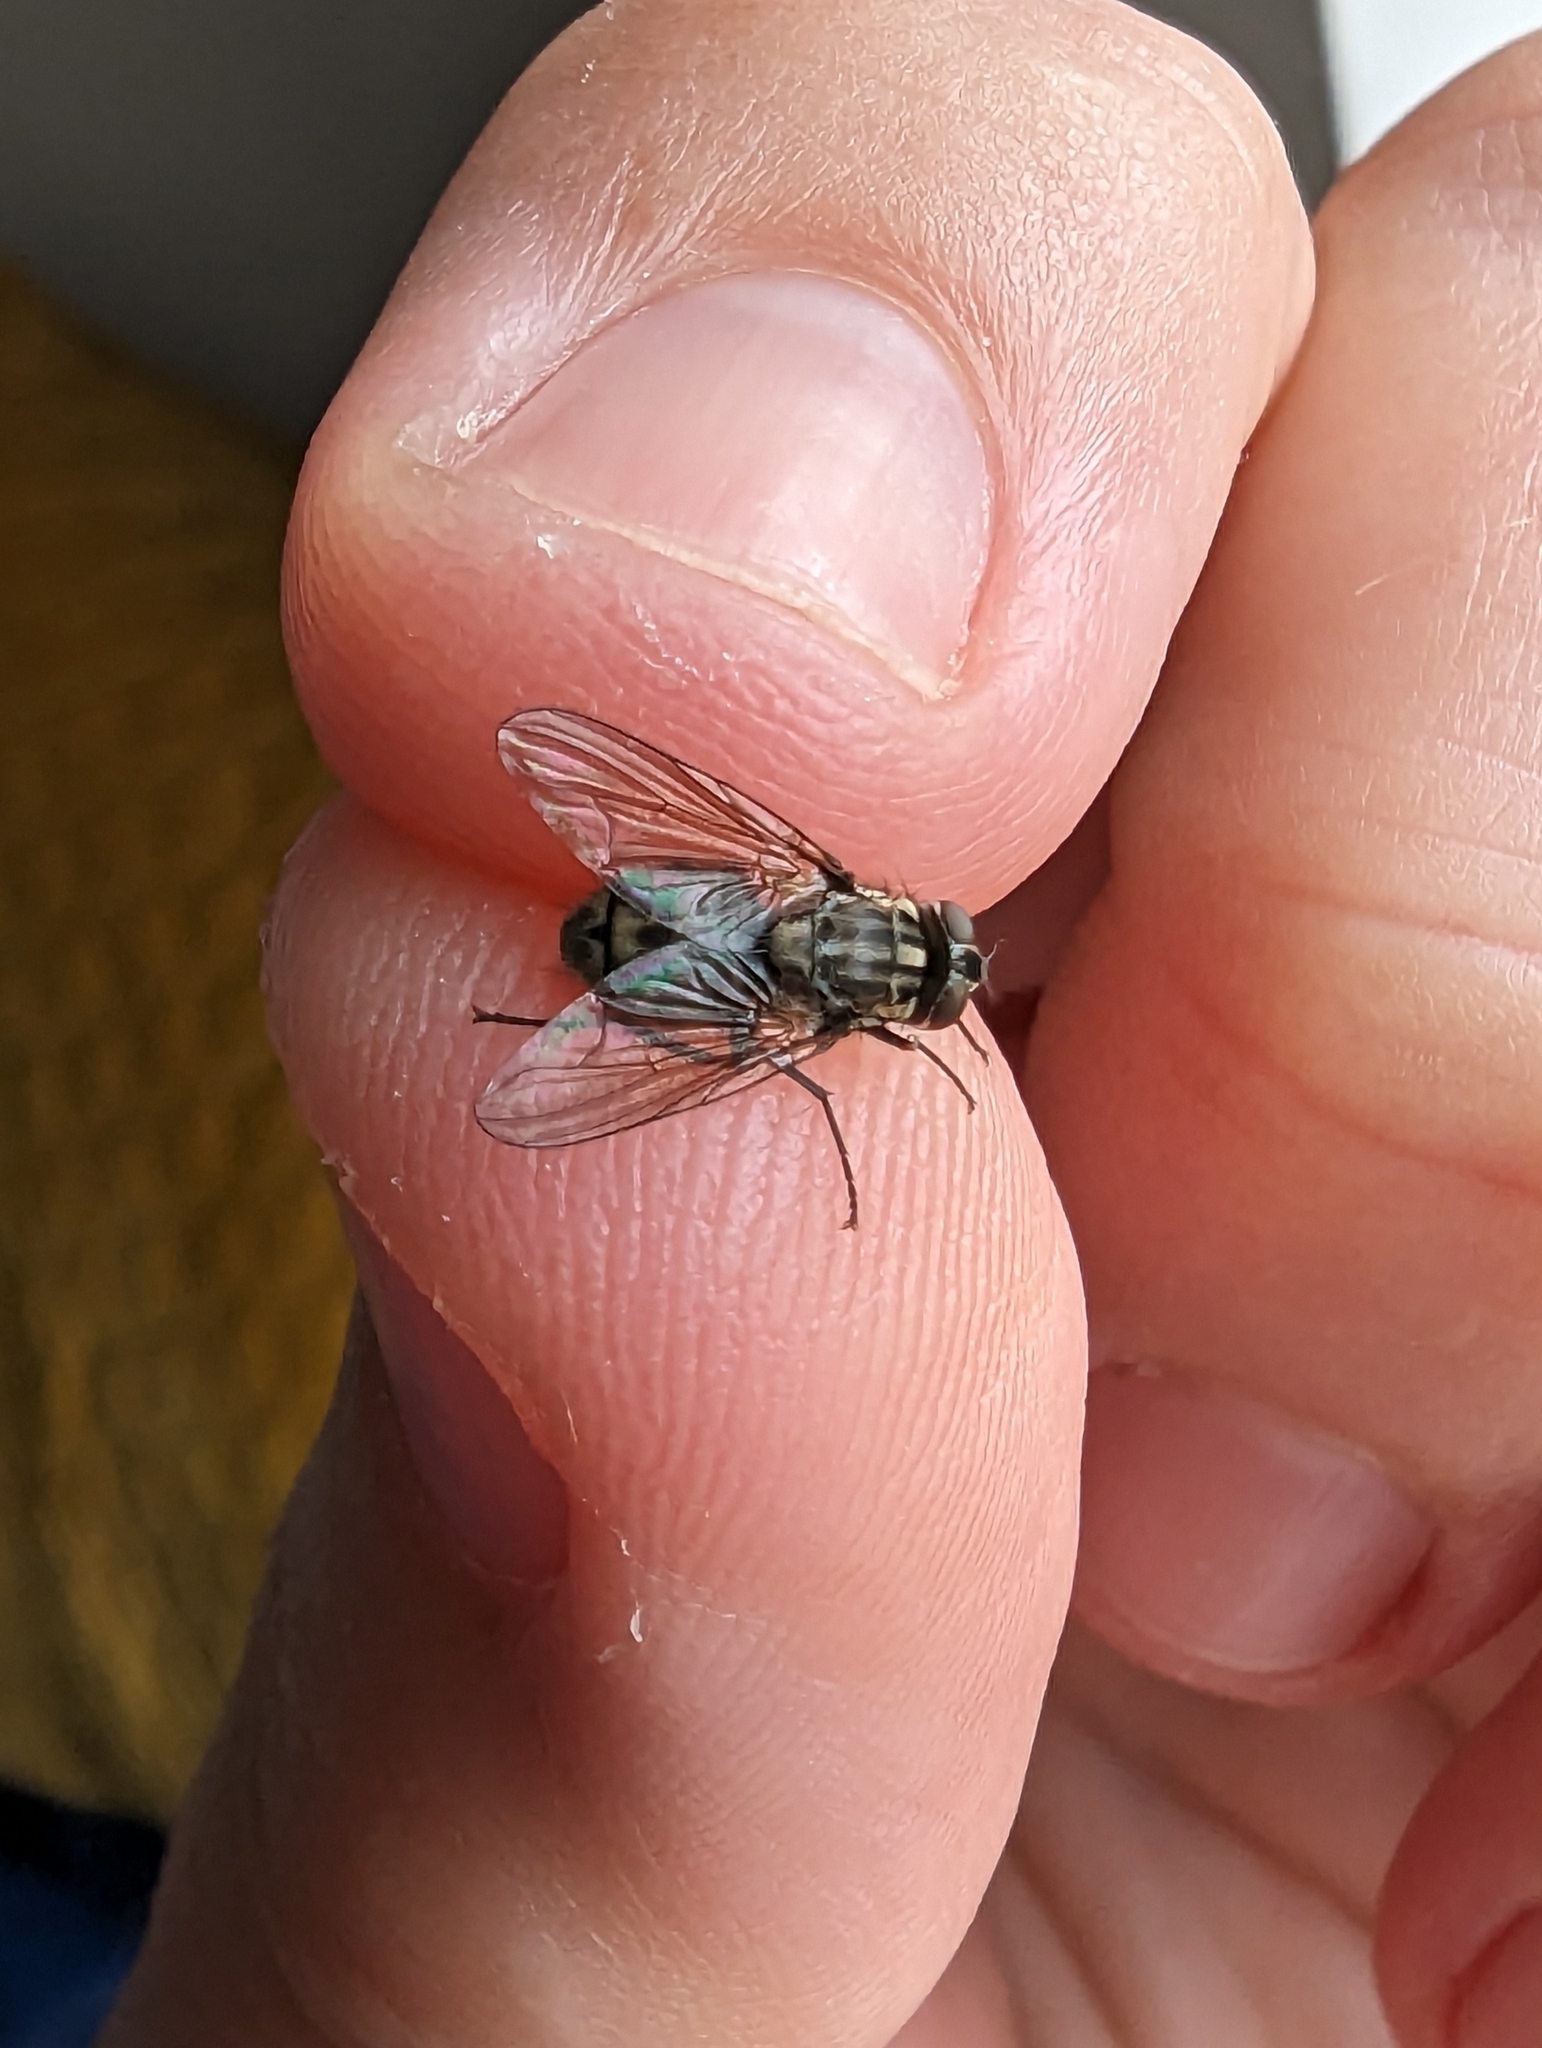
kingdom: Animalia
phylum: Arthropoda
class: Insecta
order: Diptera
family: Muscidae
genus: Stomoxys
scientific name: Stomoxys calcitrans
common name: Stable fly
